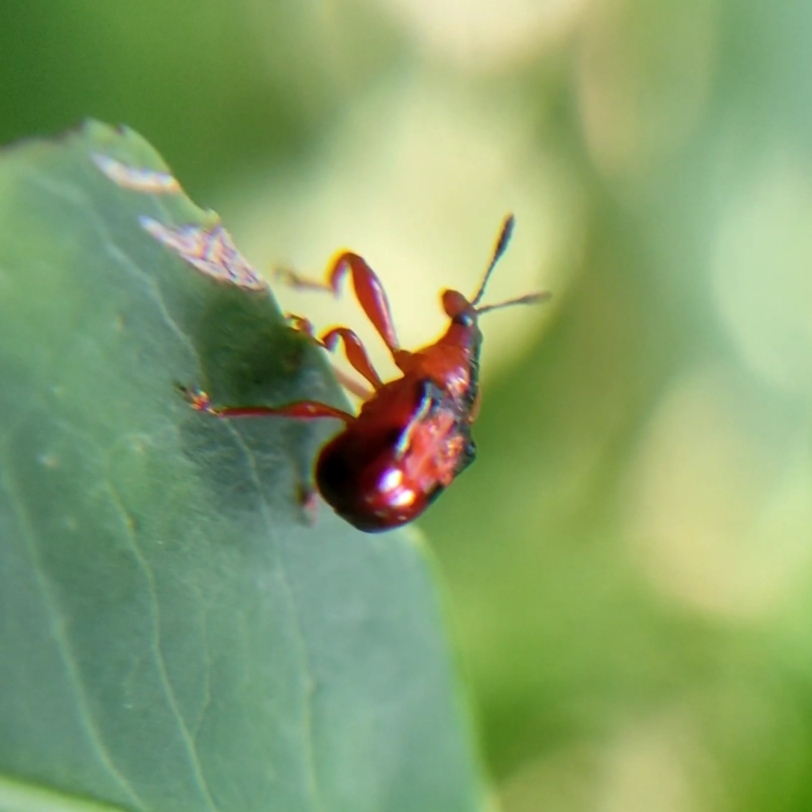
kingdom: Animalia
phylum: Arthropoda
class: Insecta
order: Coleoptera
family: Attelabidae
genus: Euscelus
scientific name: Euscelus lineatus
